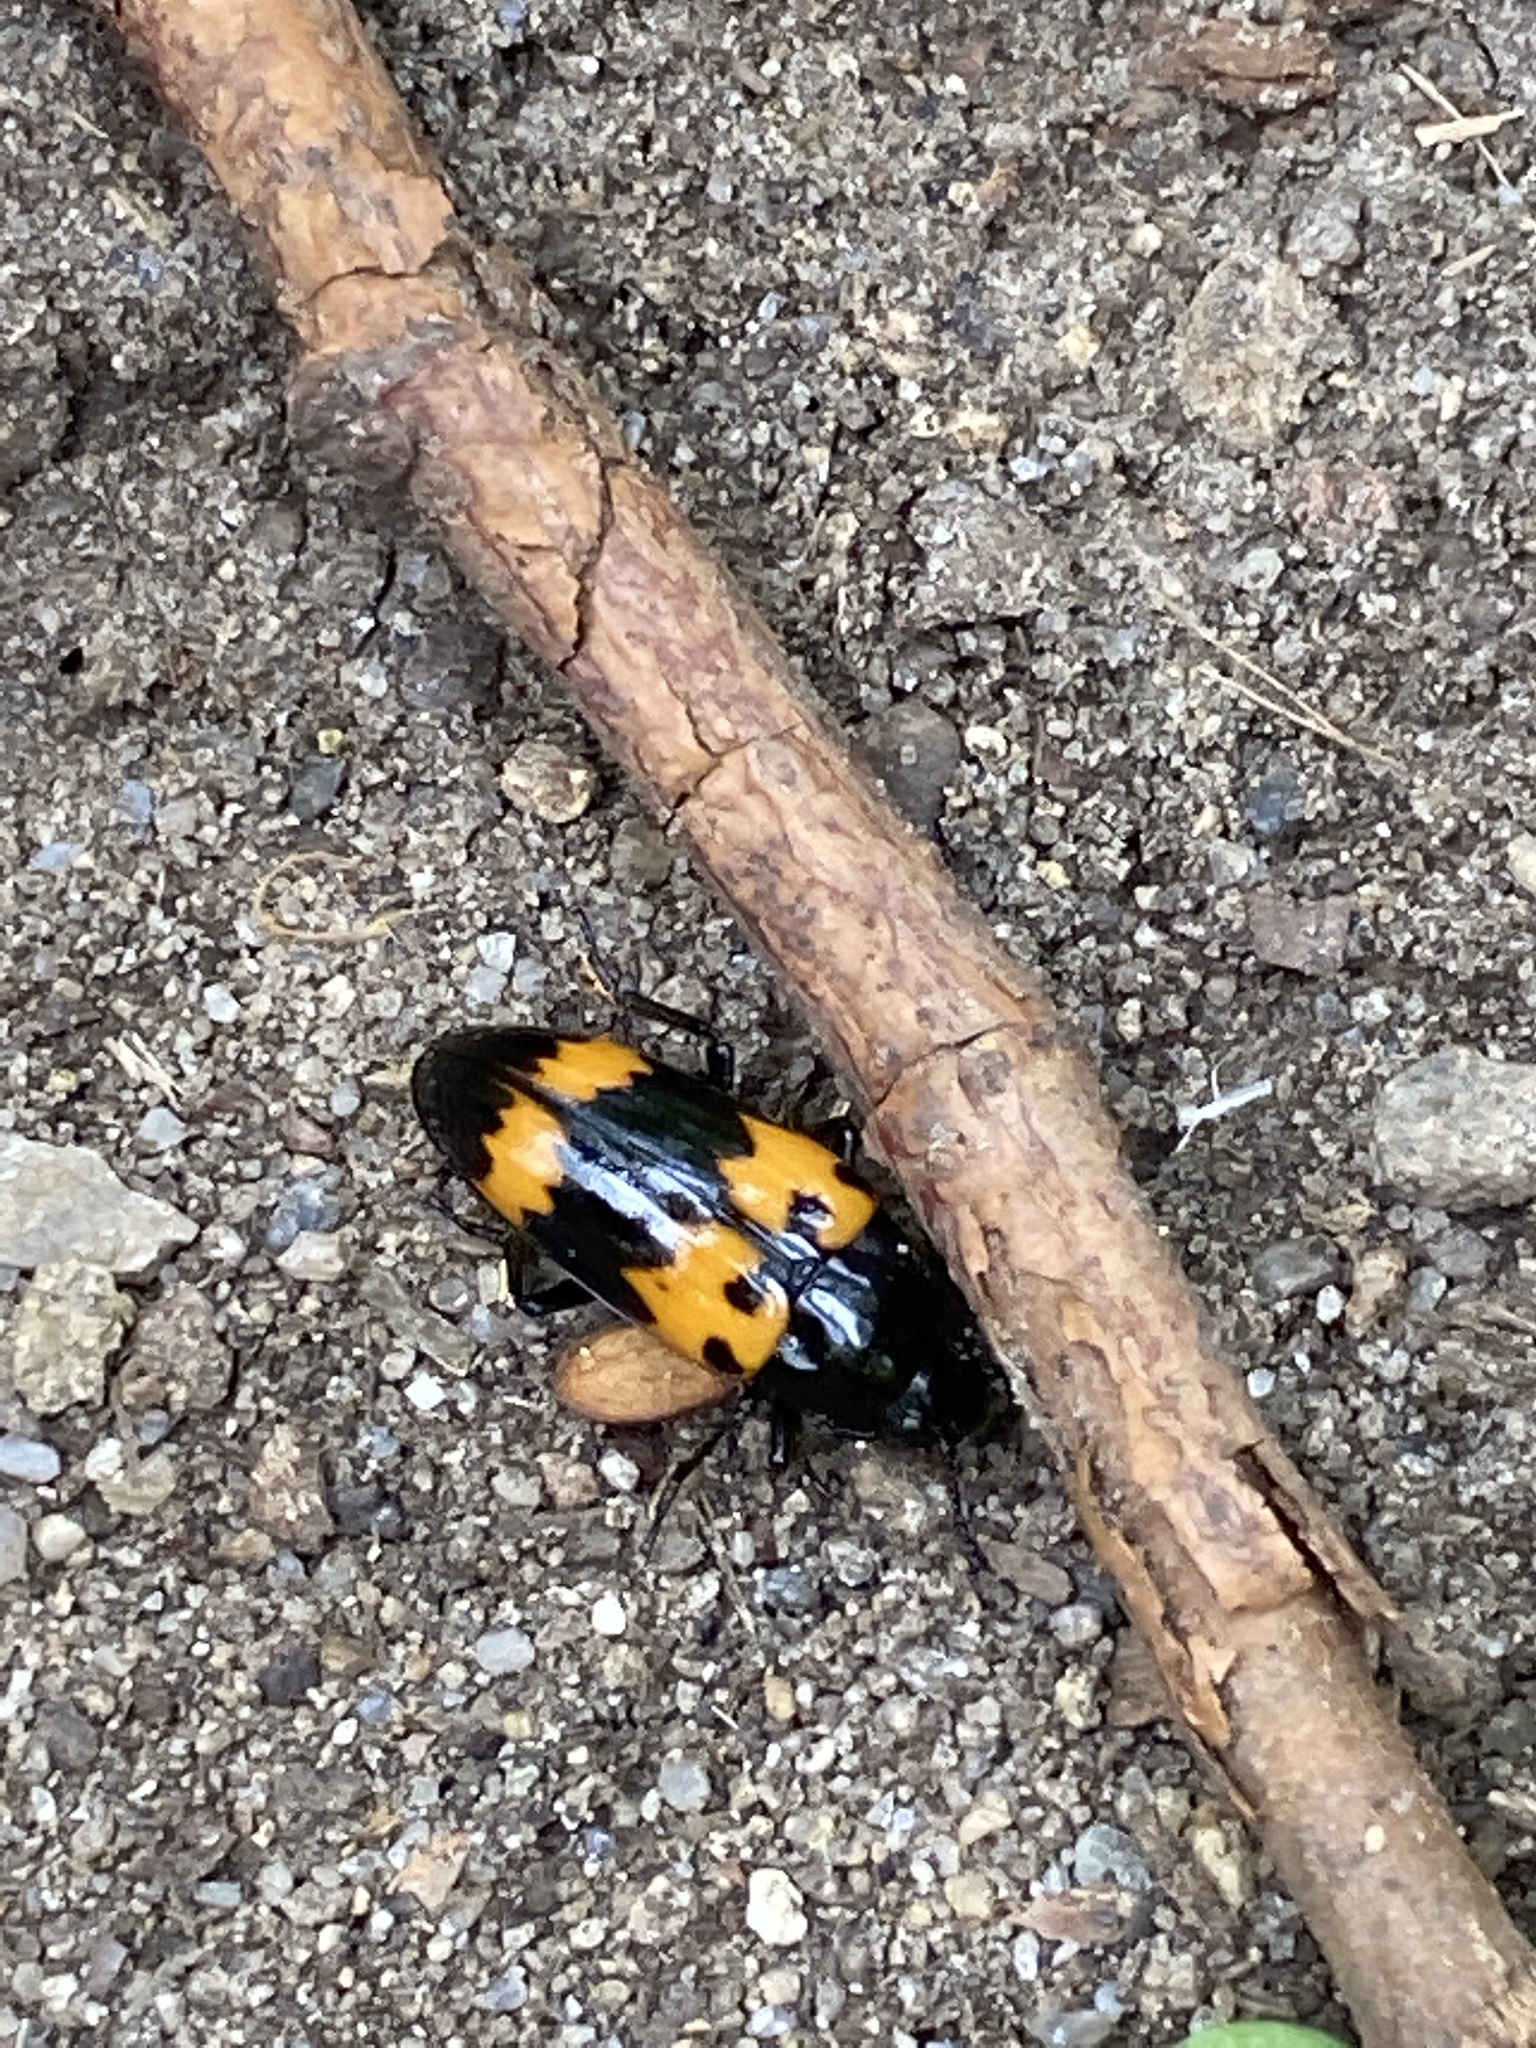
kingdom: Animalia
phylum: Arthropoda
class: Insecta
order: Coleoptera
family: Erotylidae
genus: Megalodacne
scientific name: Megalodacne heros
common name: Pleasing fungus beetle
